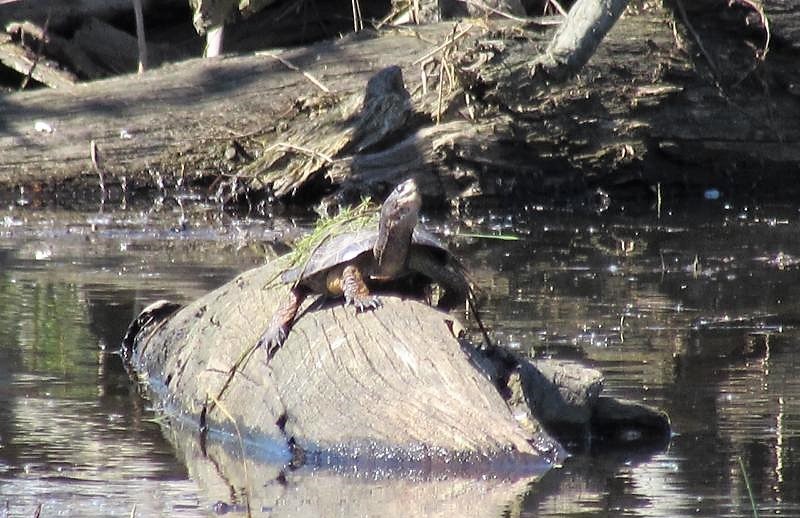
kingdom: Animalia
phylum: Chordata
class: Testudines
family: Emydidae
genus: Actinemys
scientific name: Actinemys marmorata
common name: Western pond turtle
